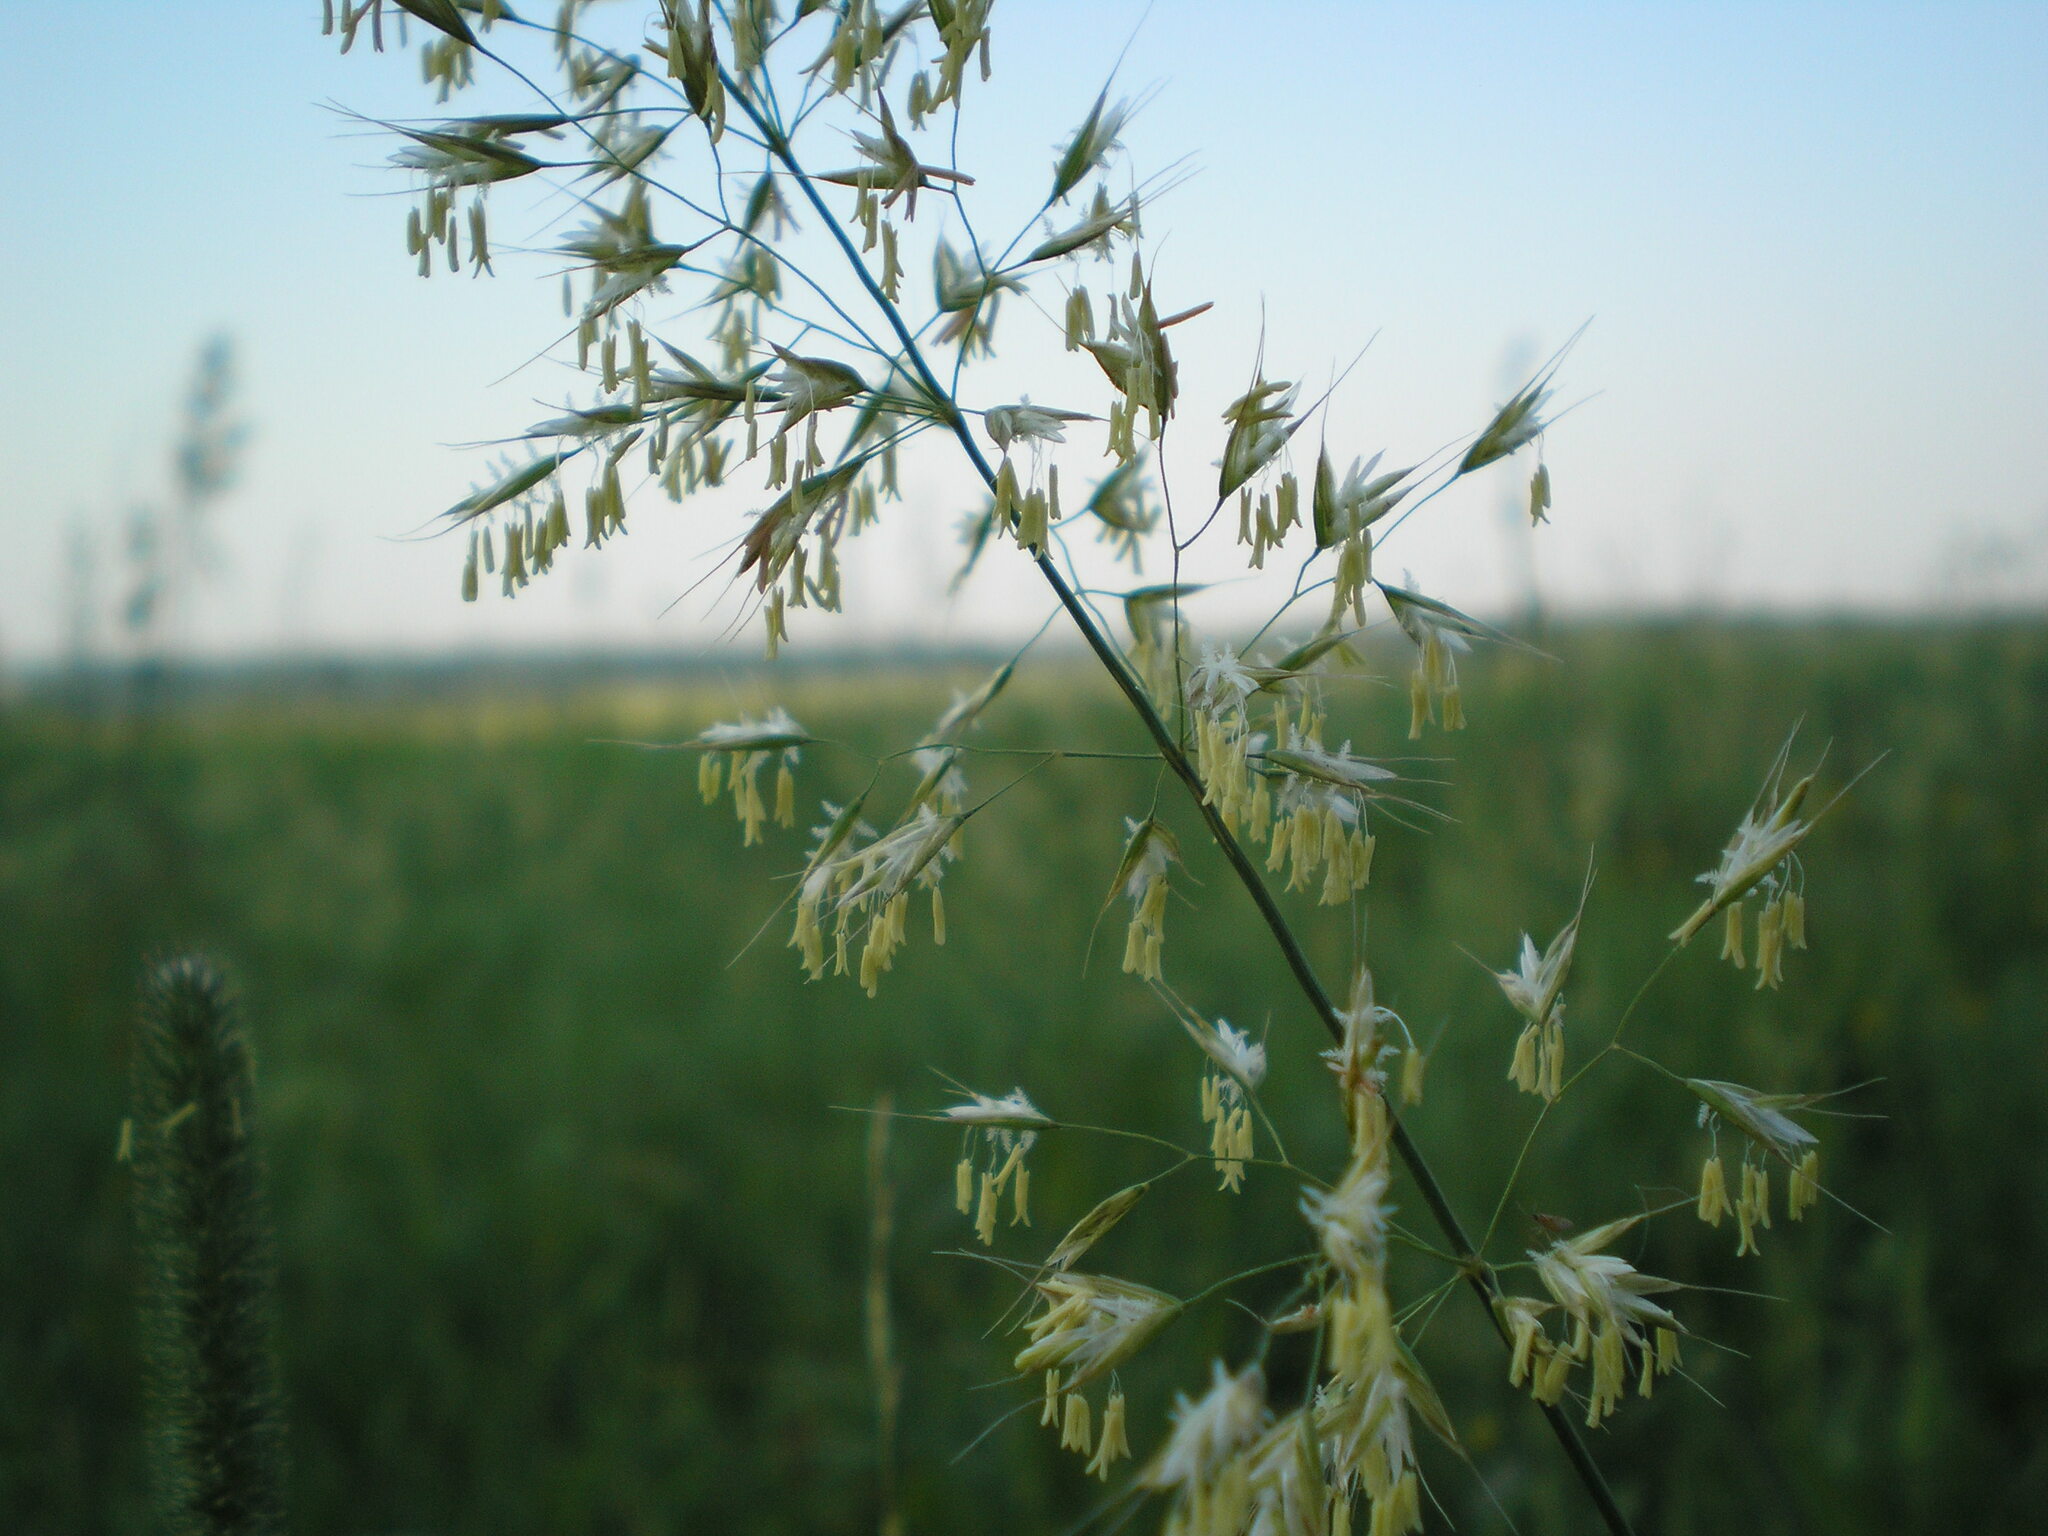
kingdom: Plantae
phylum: Tracheophyta
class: Liliopsida
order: Poales
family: Poaceae
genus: Trisetum
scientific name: Trisetum flavescens
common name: Yellow oat-grass
